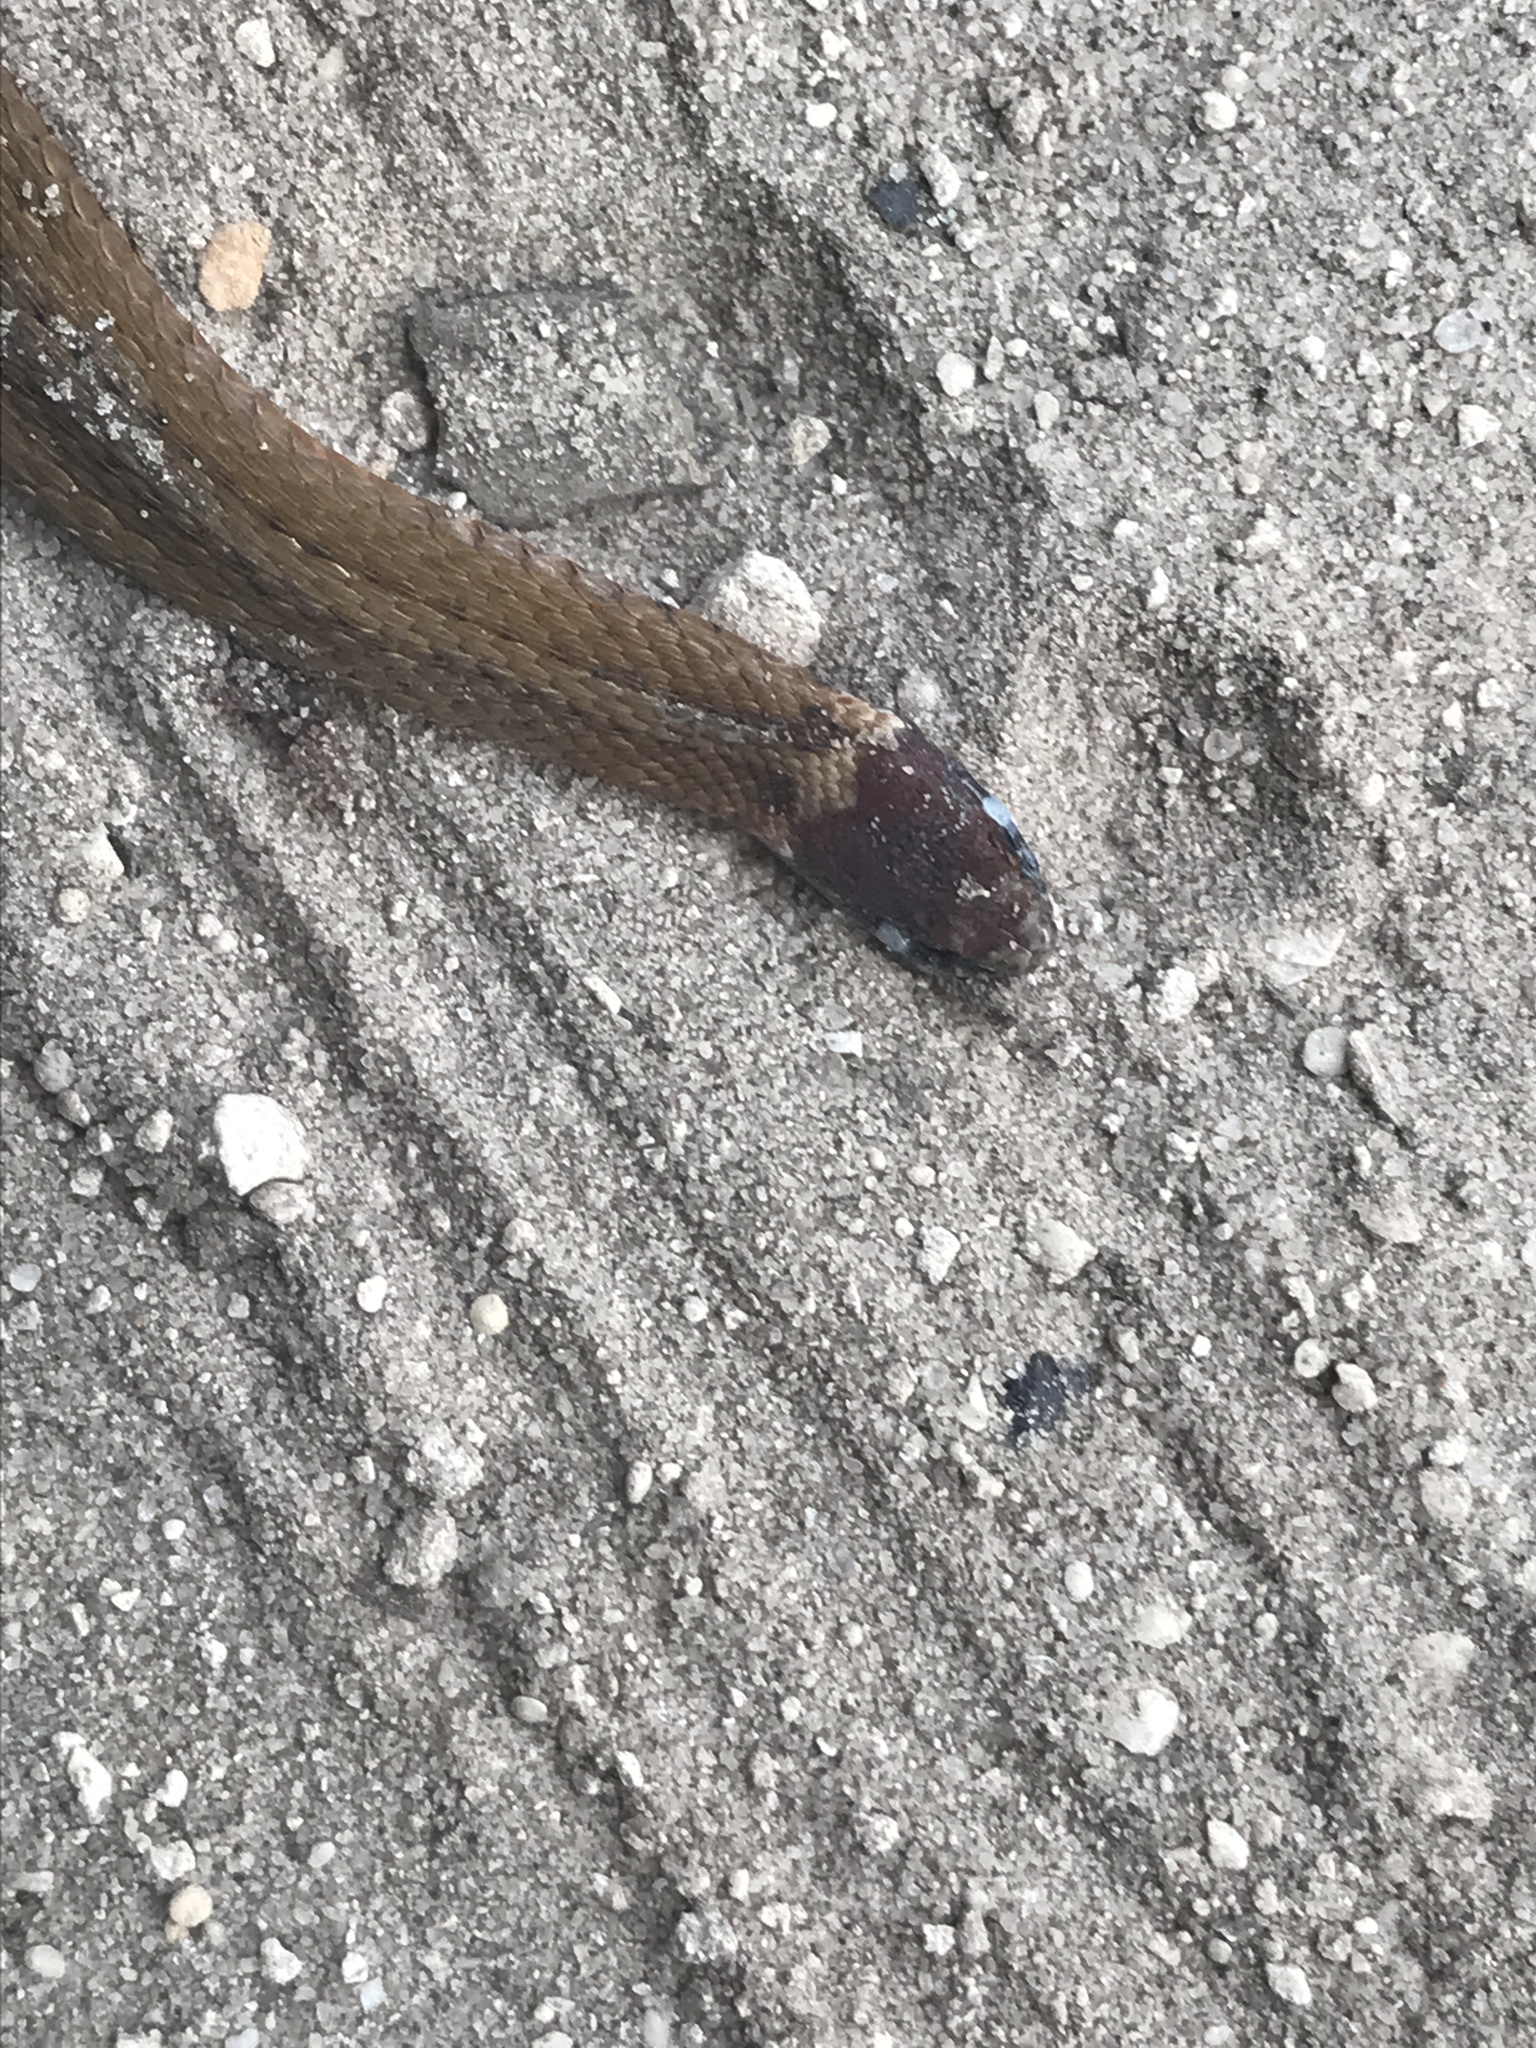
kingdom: Animalia
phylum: Chordata
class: Squamata
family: Colubridae
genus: Storeria
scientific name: Storeria occipitomaculata
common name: Redbelly snake
